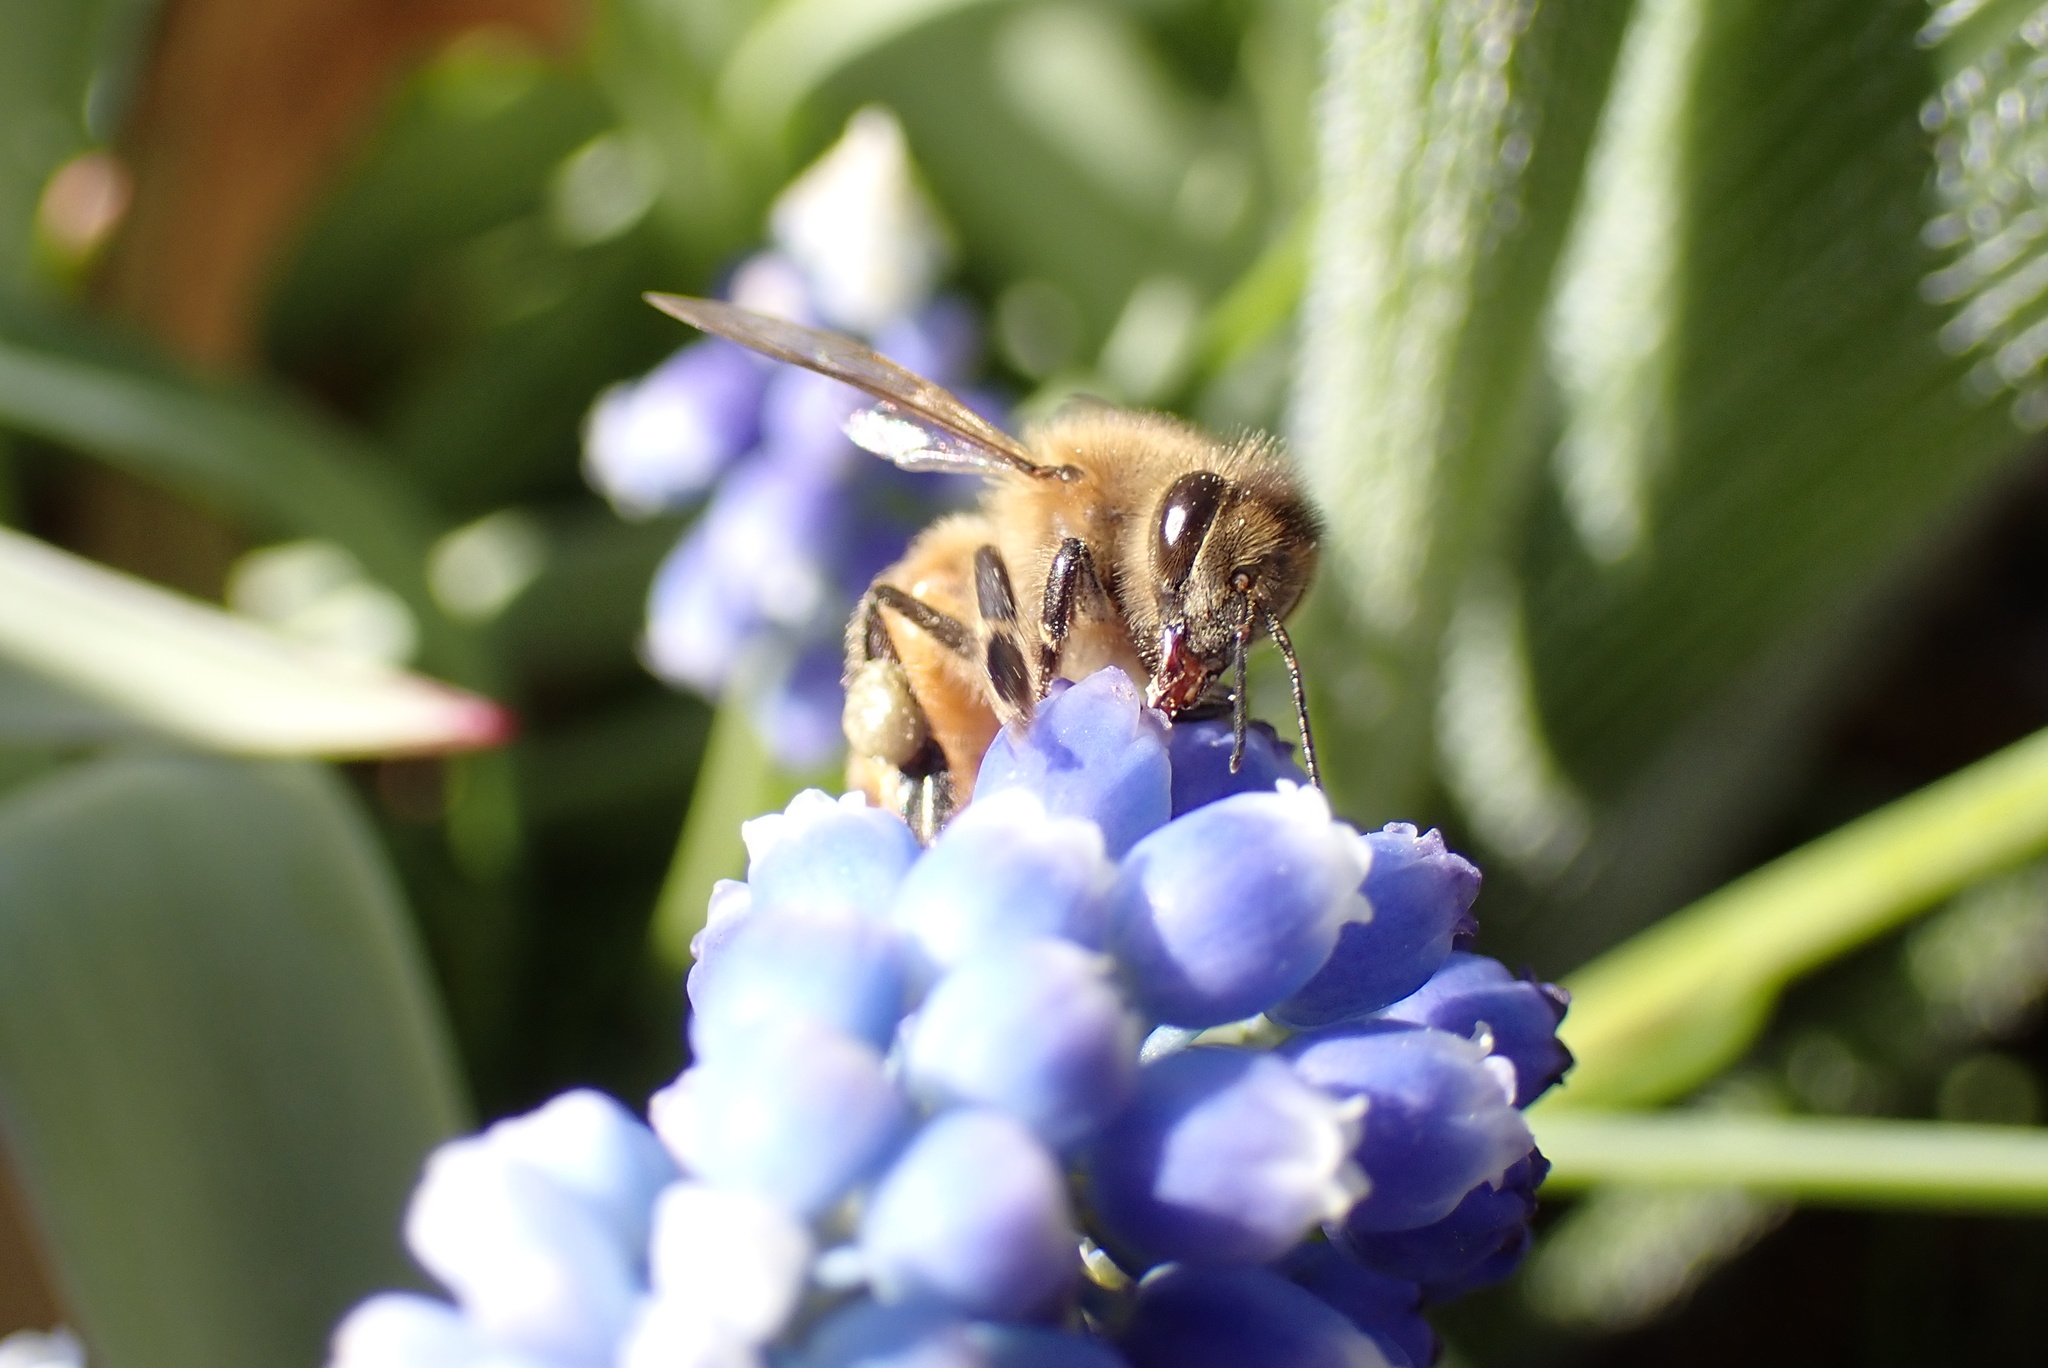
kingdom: Animalia
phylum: Arthropoda
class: Insecta
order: Hymenoptera
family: Apidae
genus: Apis
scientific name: Apis mellifera
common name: Honey bee
